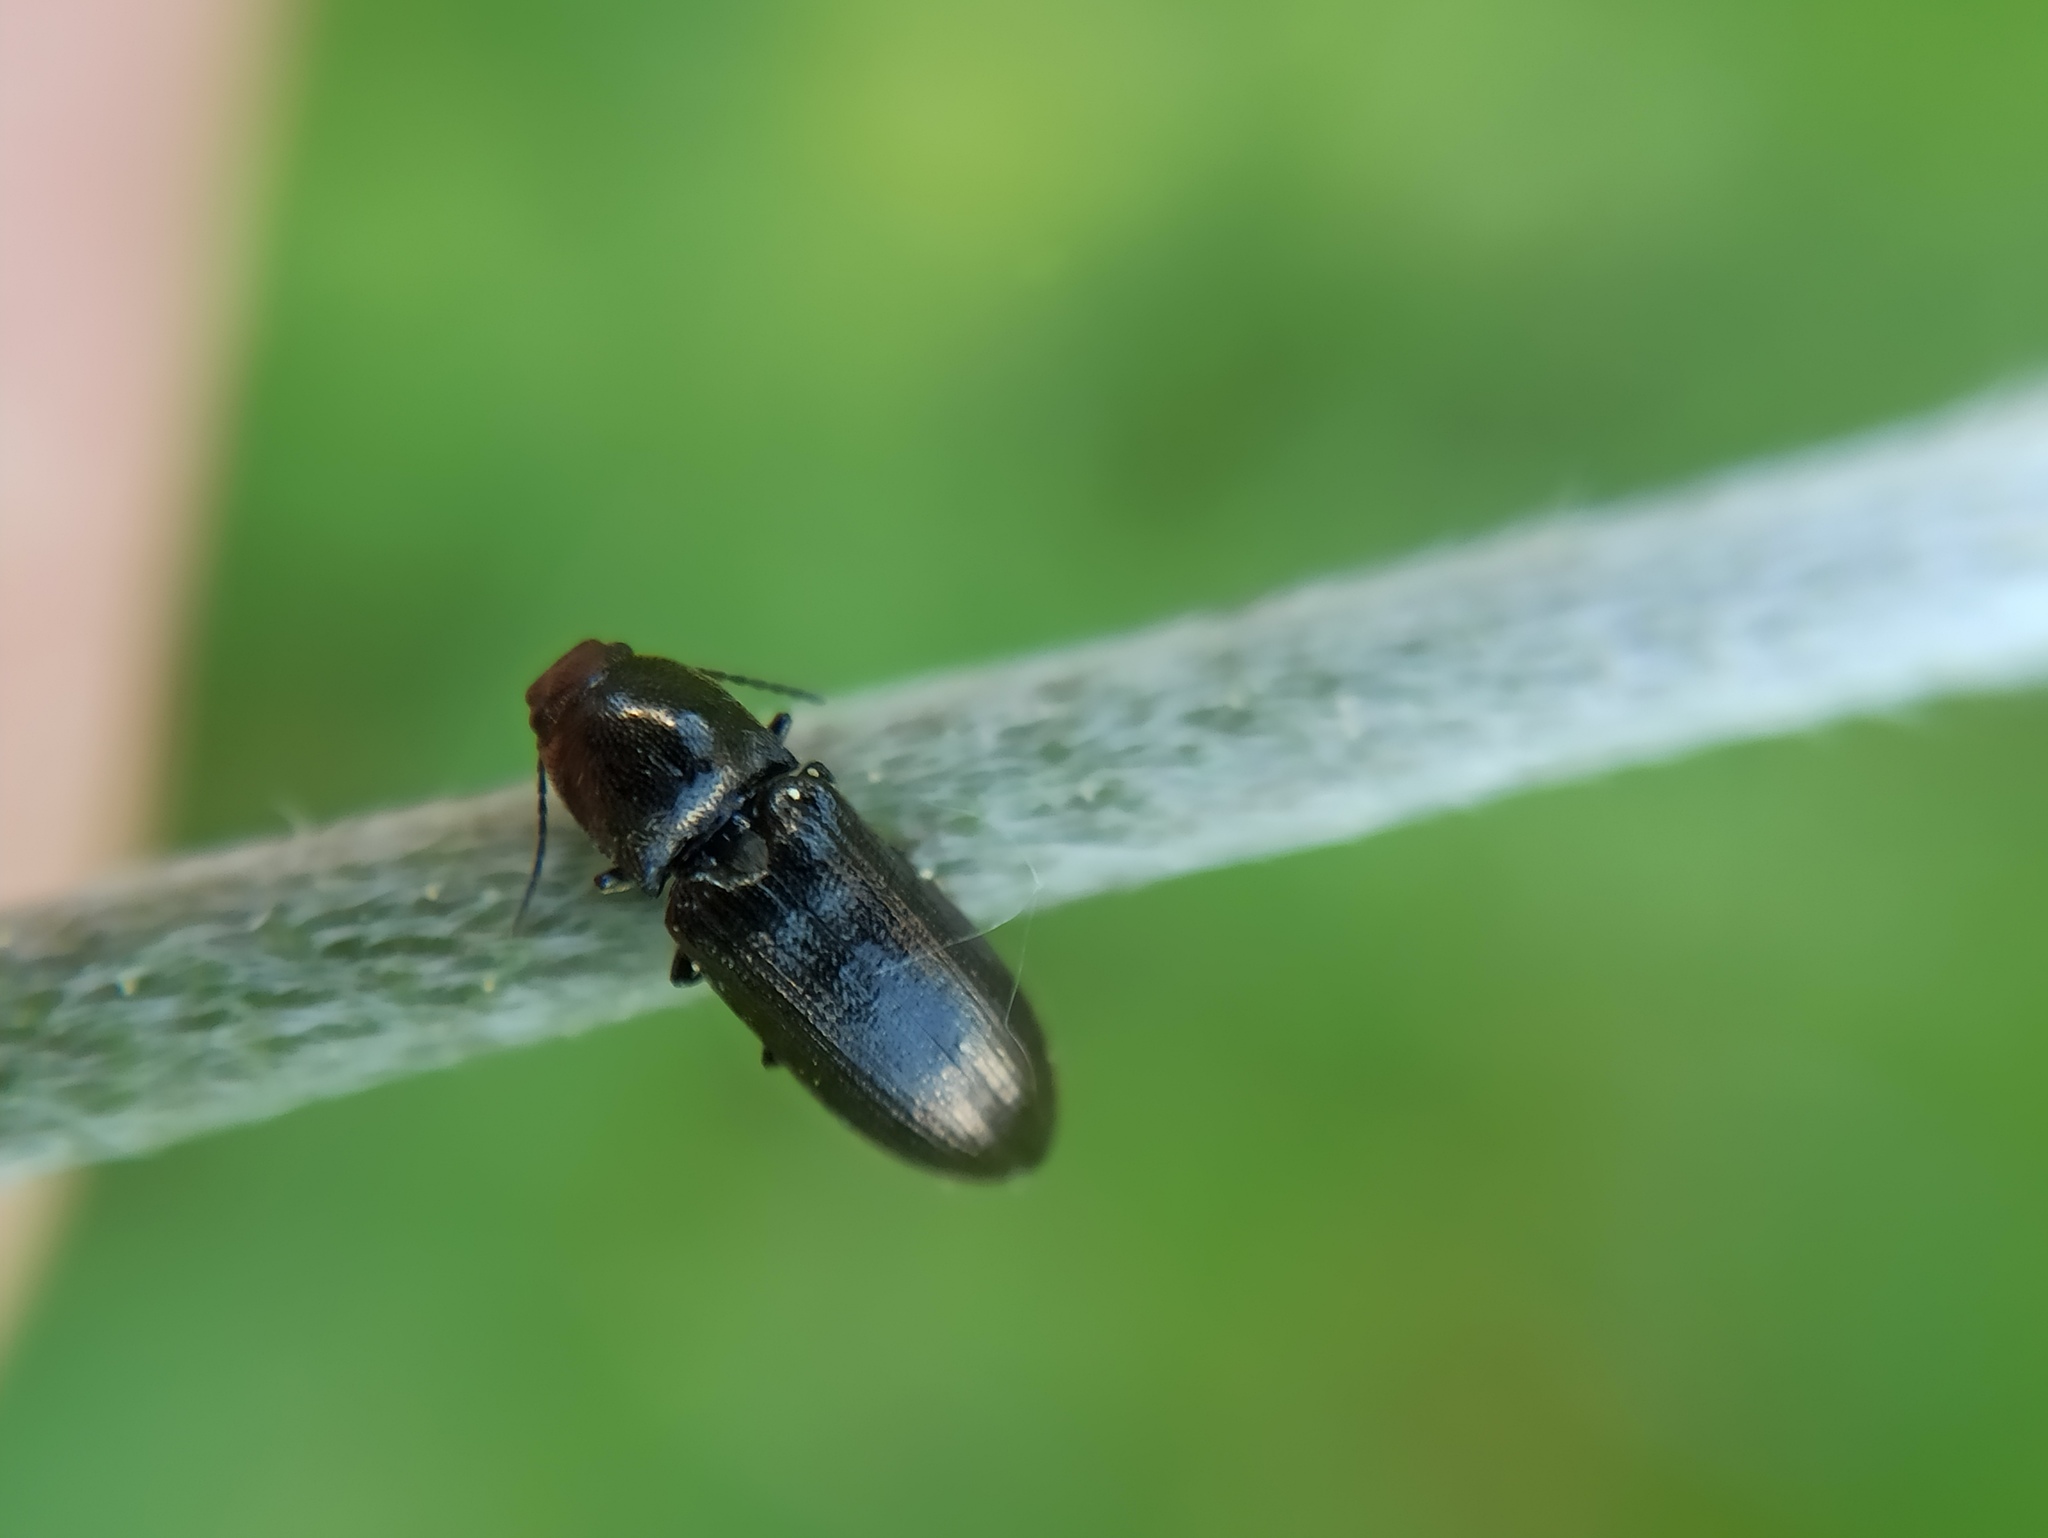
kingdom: Animalia
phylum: Arthropoda
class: Insecta
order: Coleoptera
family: Elateridae
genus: Pheletes
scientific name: Pheletes aeneoniger
